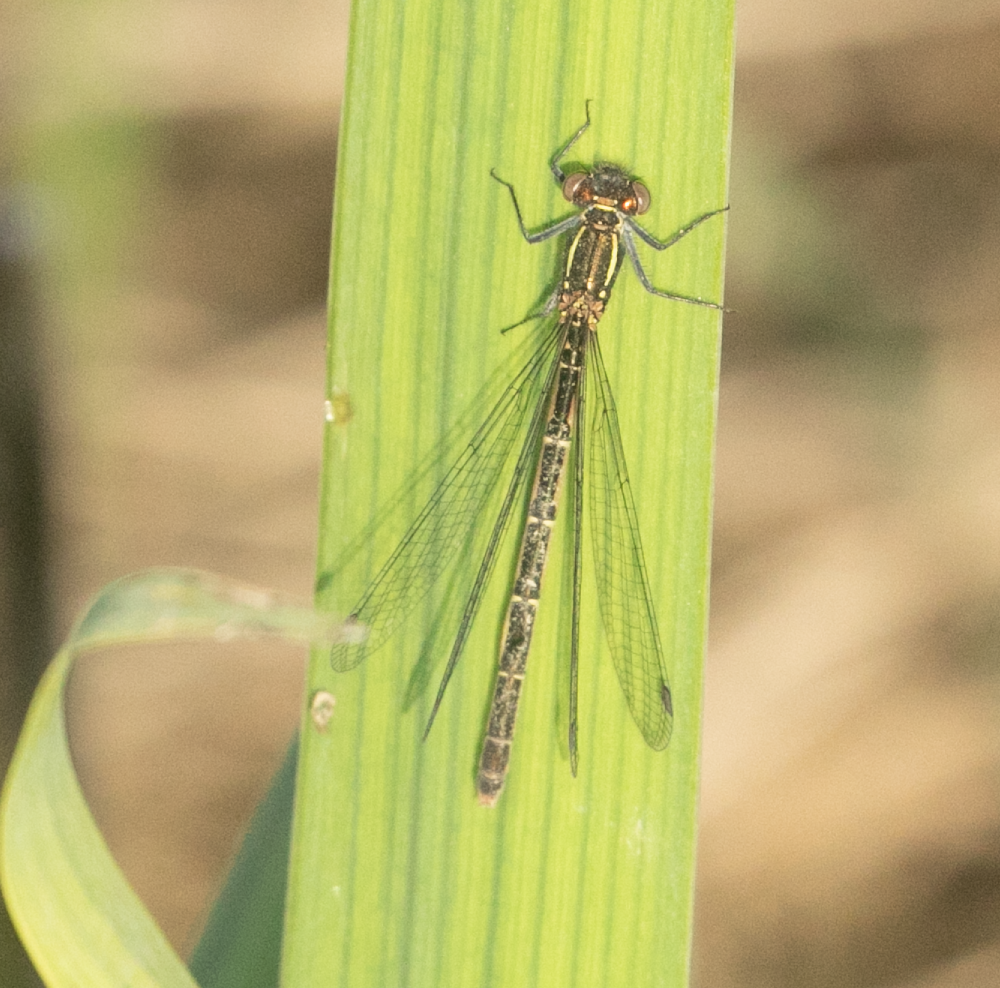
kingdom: Animalia
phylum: Arthropoda
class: Insecta
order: Odonata
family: Coenagrionidae
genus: Pyrrhosoma
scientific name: Pyrrhosoma nymphula
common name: Large red damsel
